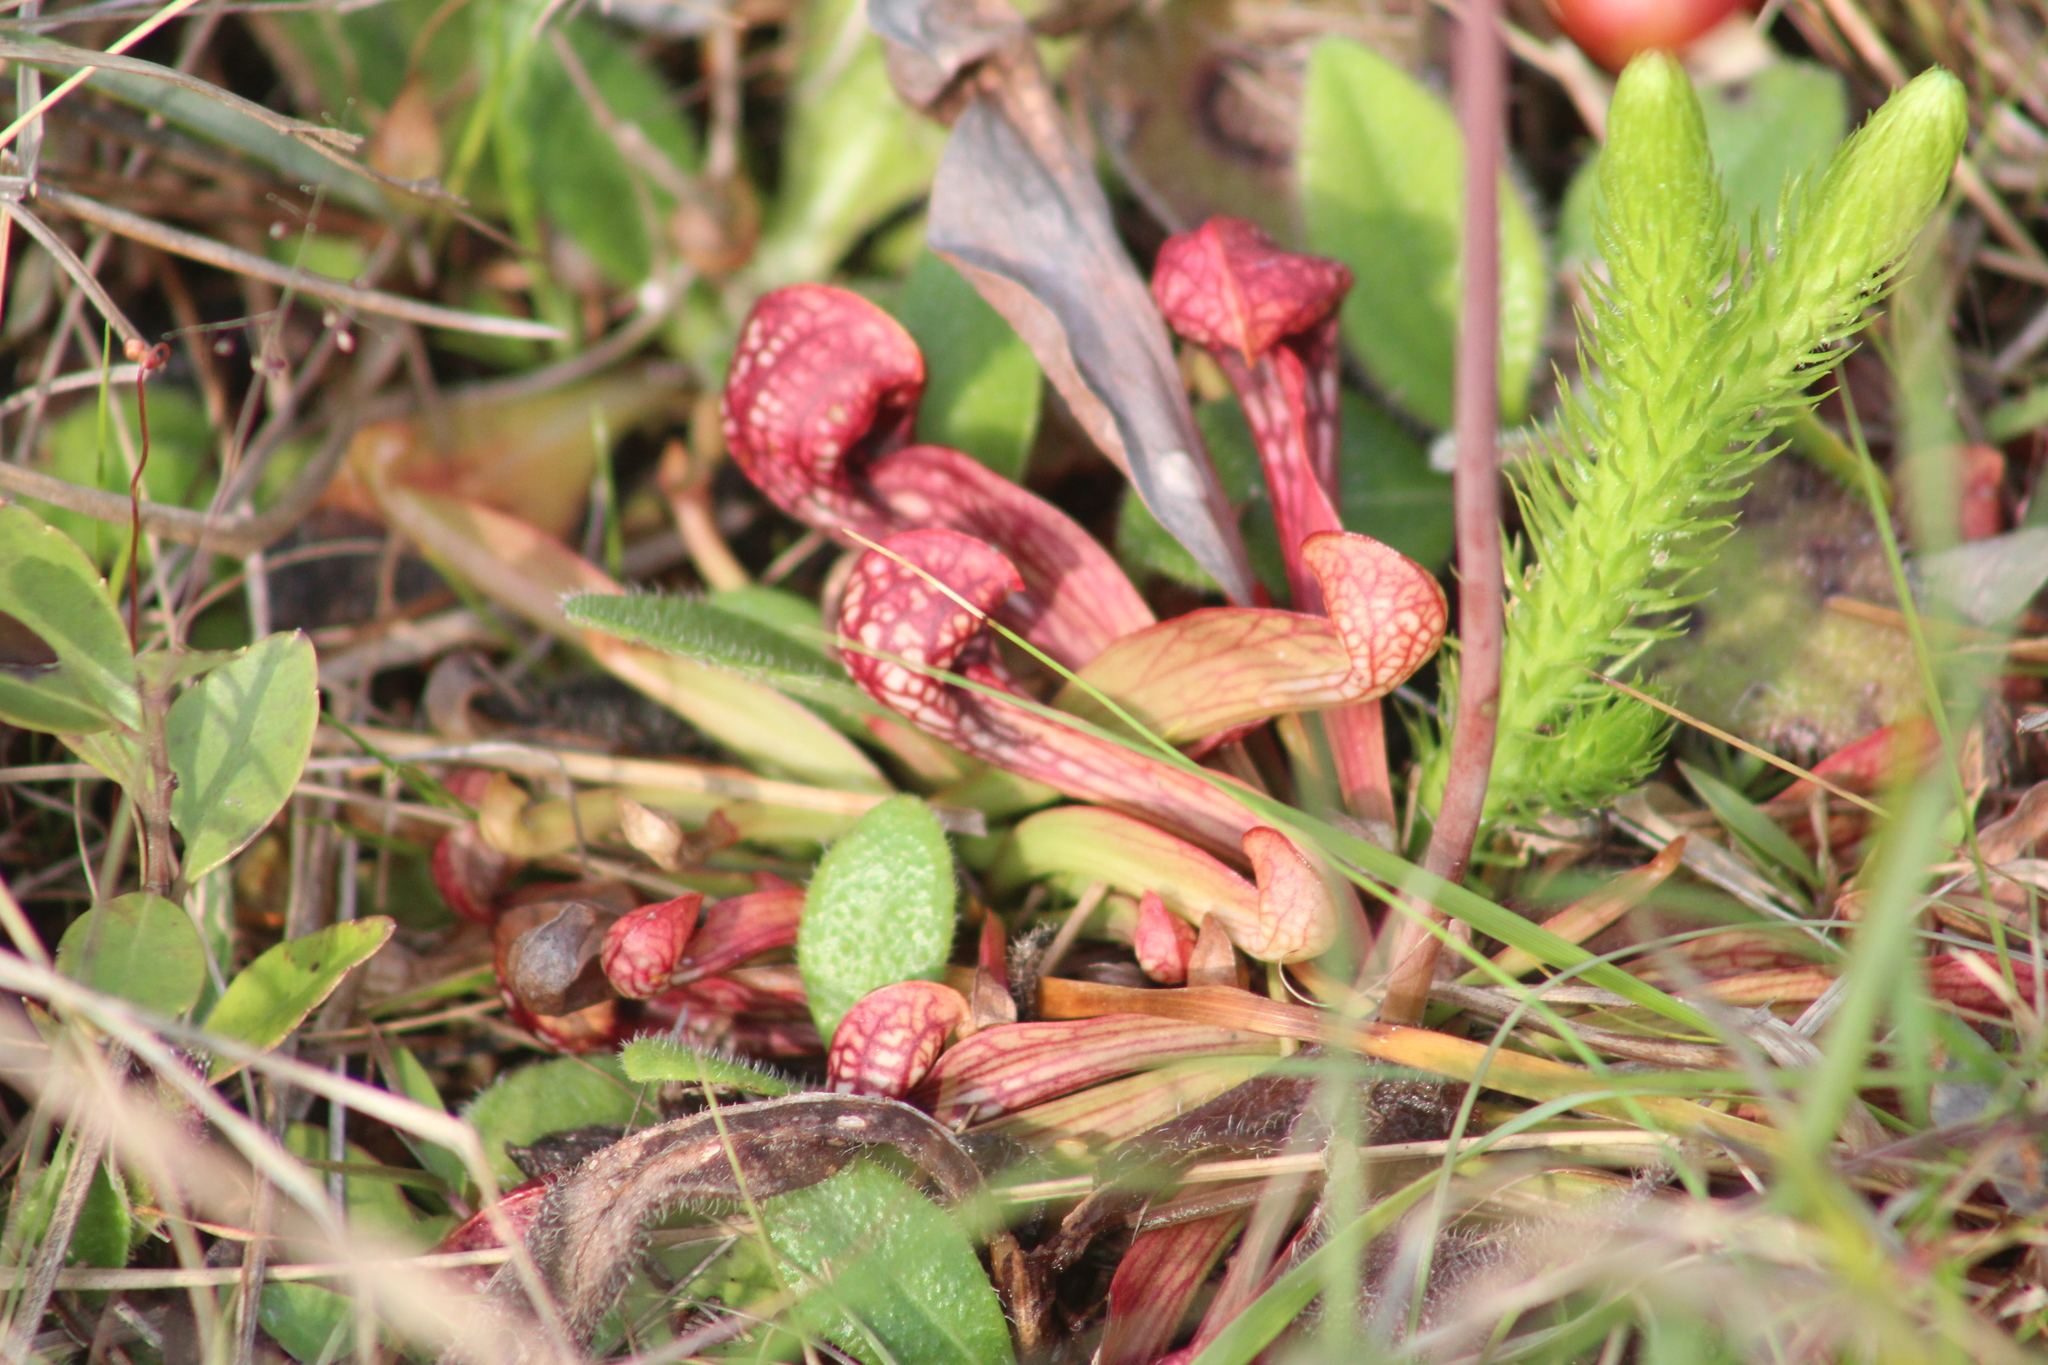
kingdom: Plantae
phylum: Tracheophyta
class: Magnoliopsida
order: Ericales
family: Sarraceniaceae
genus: Sarracenia
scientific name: Sarracenia psittacina
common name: Parrot pitcherplant
